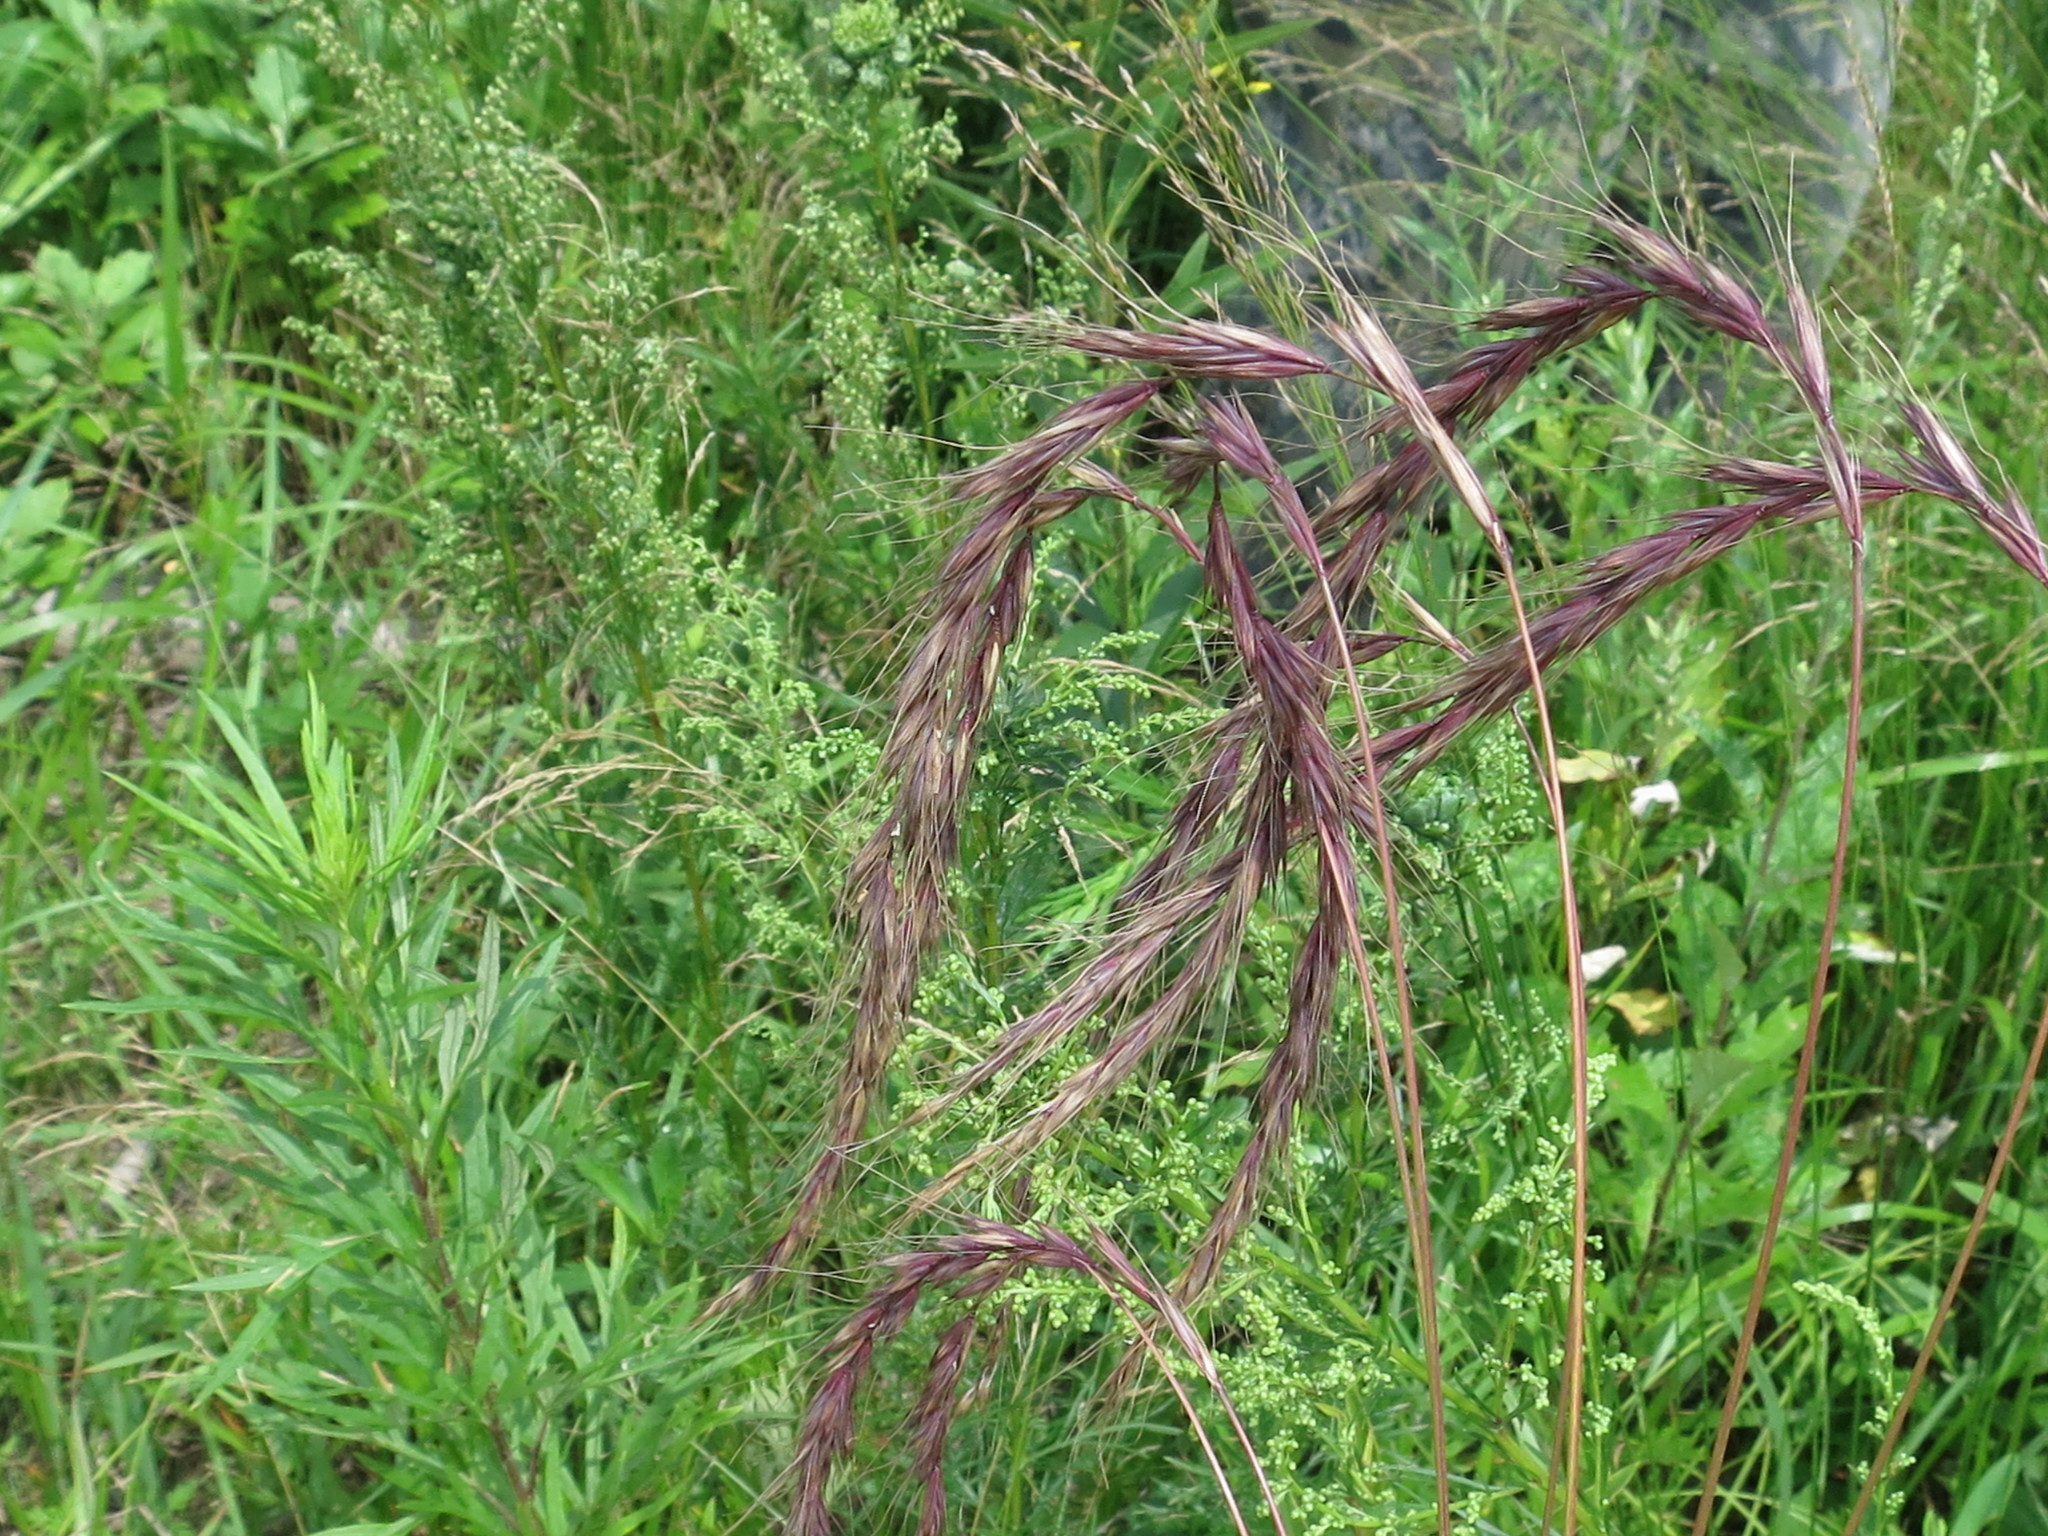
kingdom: Plantae
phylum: Tracheophyta
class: Liliopsida
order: Poales
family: Poaceae
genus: Elymus
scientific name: Elymus sibiricus
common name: Siberian wildrye
